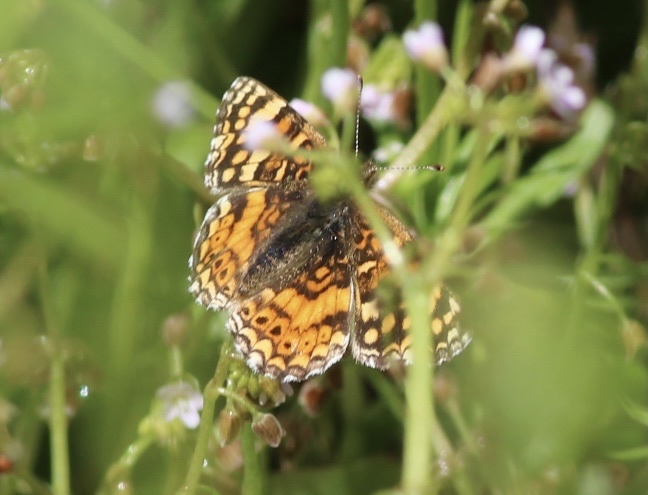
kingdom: Animalia
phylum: Arthropoda
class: Insecta
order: Lepidoptera
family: Nymphalidae
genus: Eresia
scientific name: Eresia aveyrona
